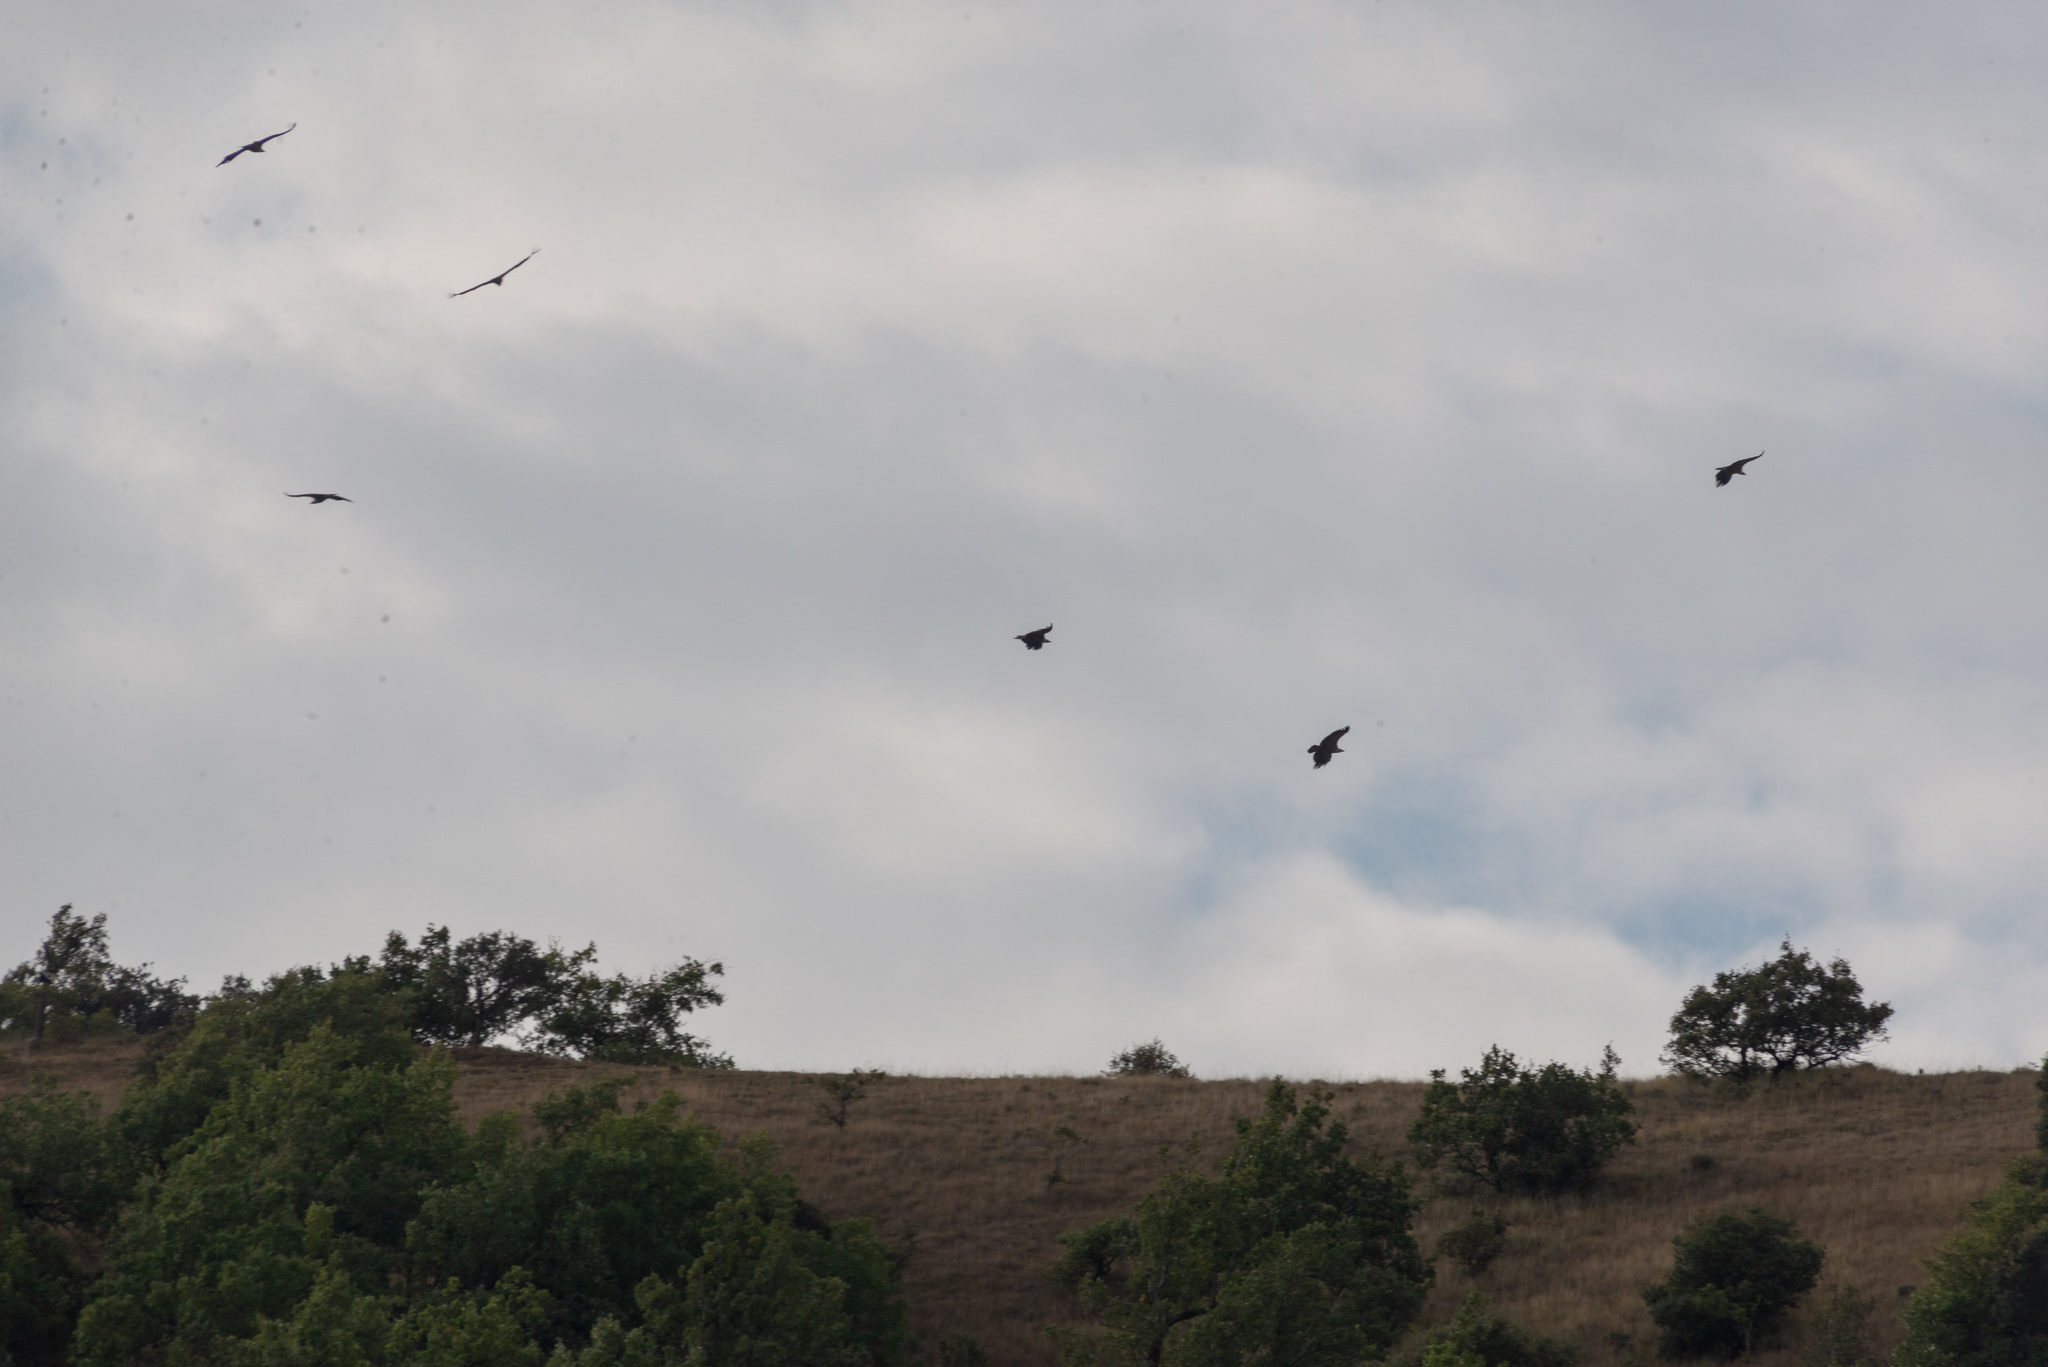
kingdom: Animalia
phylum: Chordata
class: Aves
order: Accipitriformes
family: Accipitridae
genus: Gyps
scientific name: Gyps fulvus
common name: Griffon vulture
